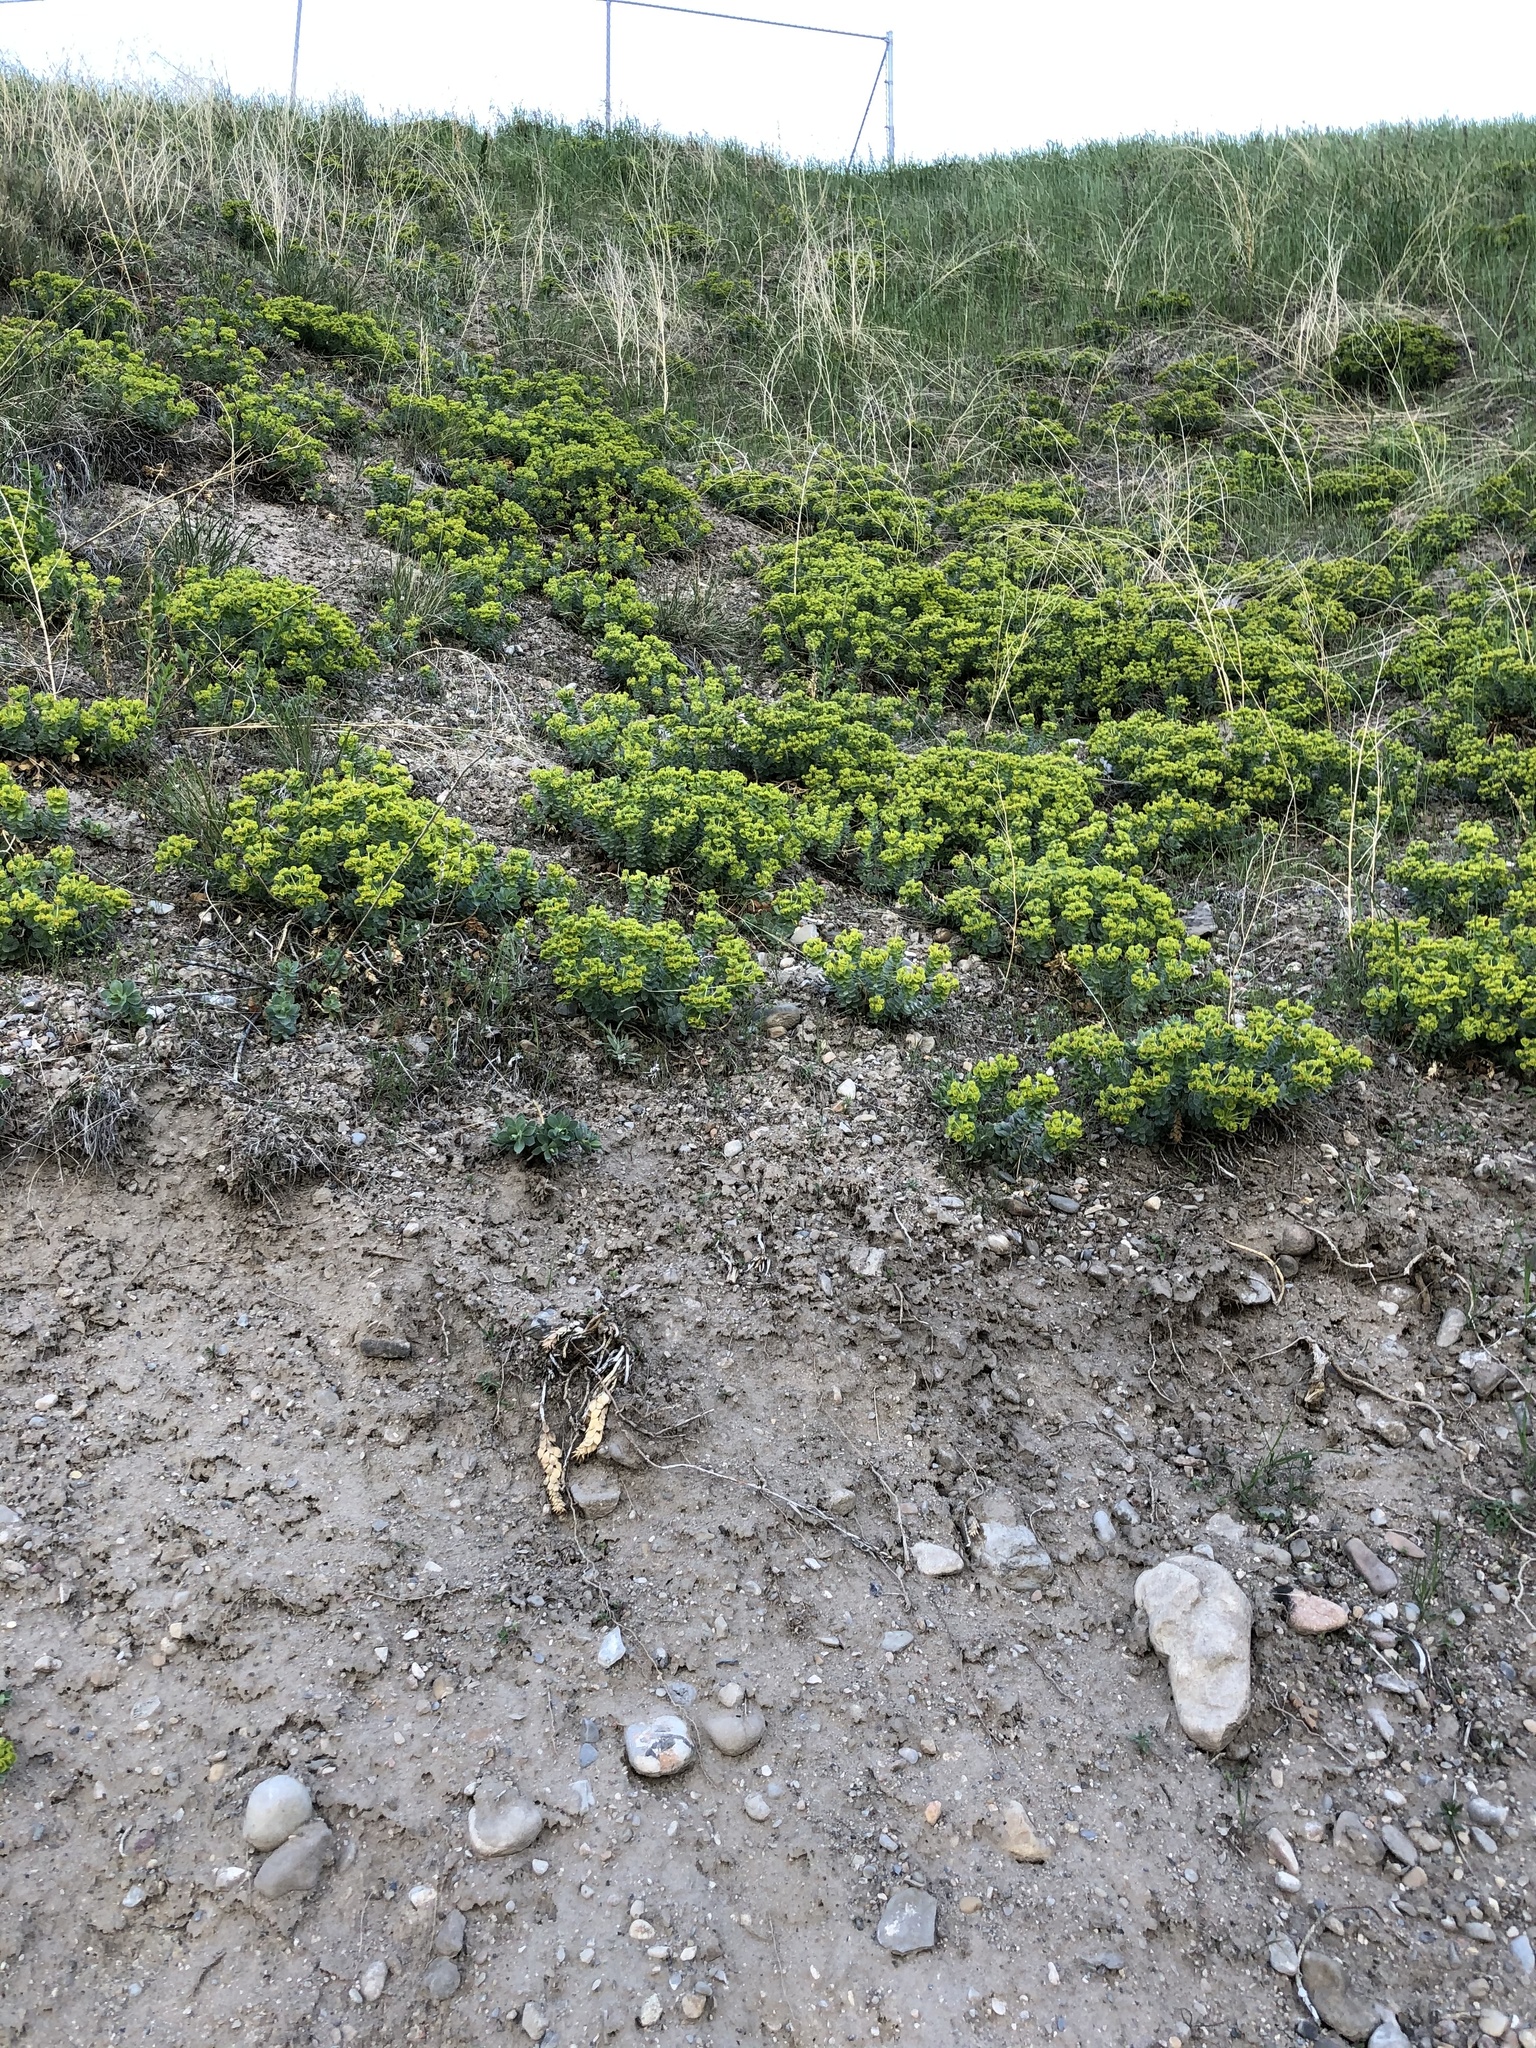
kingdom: Plantae
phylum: Tracheophyta
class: Magnoliopsida
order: Malpighiales
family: Euphorbiaceae
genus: Euphorbia
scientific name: Euphorbia myrsinites
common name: Myrtle spurge
